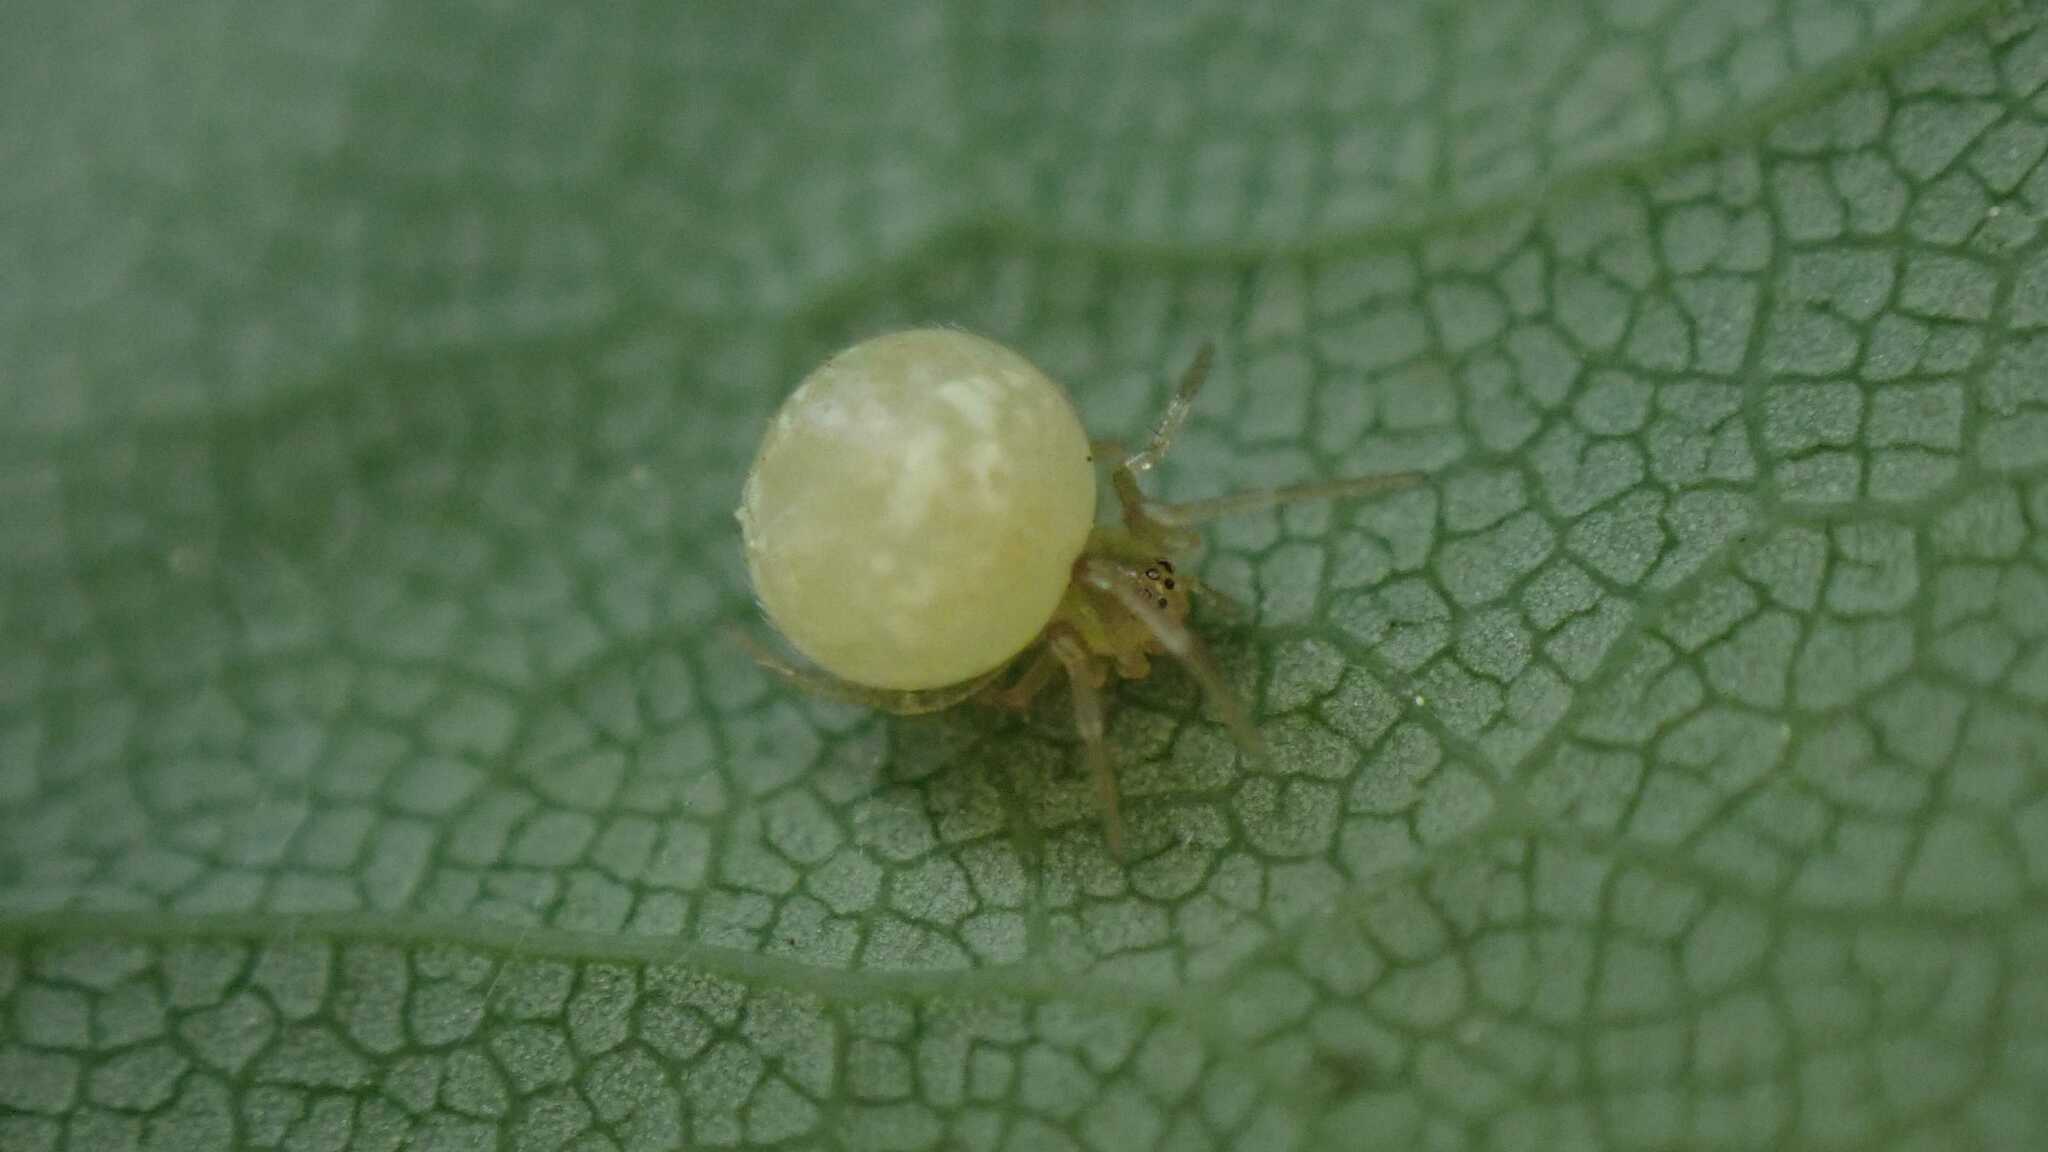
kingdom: Animalia
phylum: Arthropoda
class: Arachnida
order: Araneae
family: Theridiidae
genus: Paidiscura
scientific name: Paidiscura pallens
